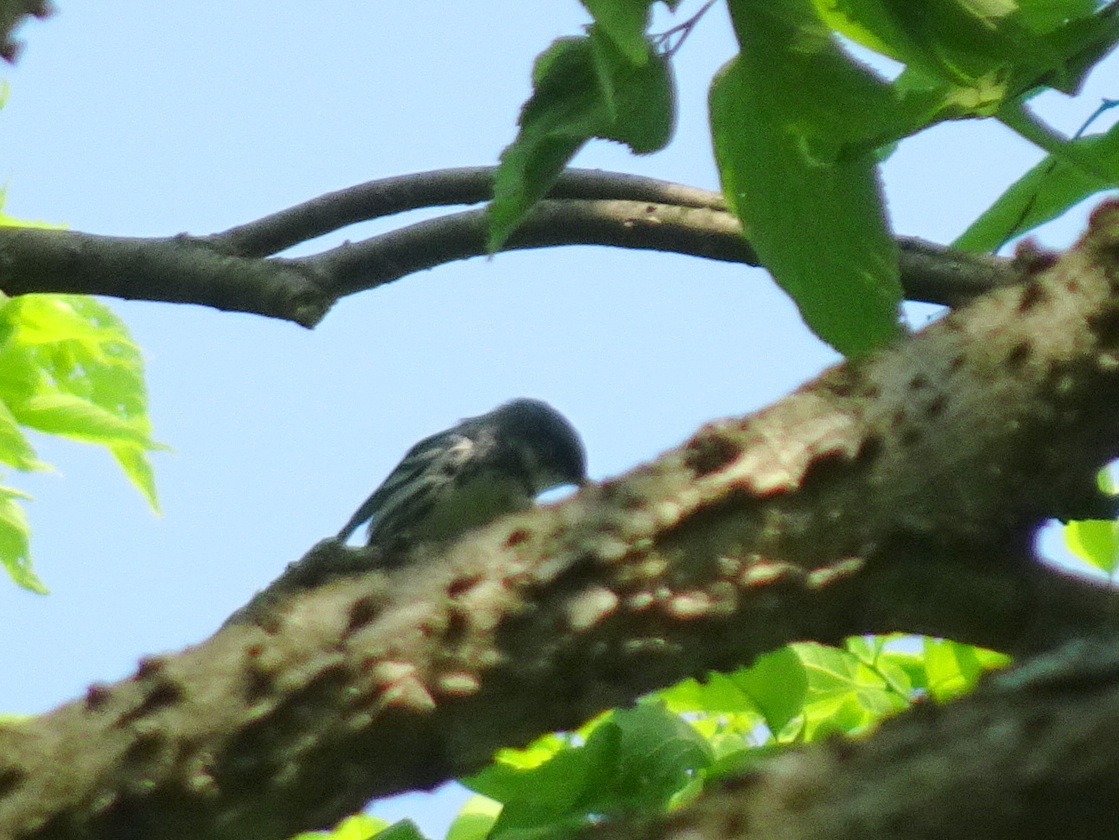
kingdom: Animalia
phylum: Chordata
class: Aves
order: Passeriformes
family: Parulidae
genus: Setophaga
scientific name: Setophaga cerulea
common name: Cerulean warbler
